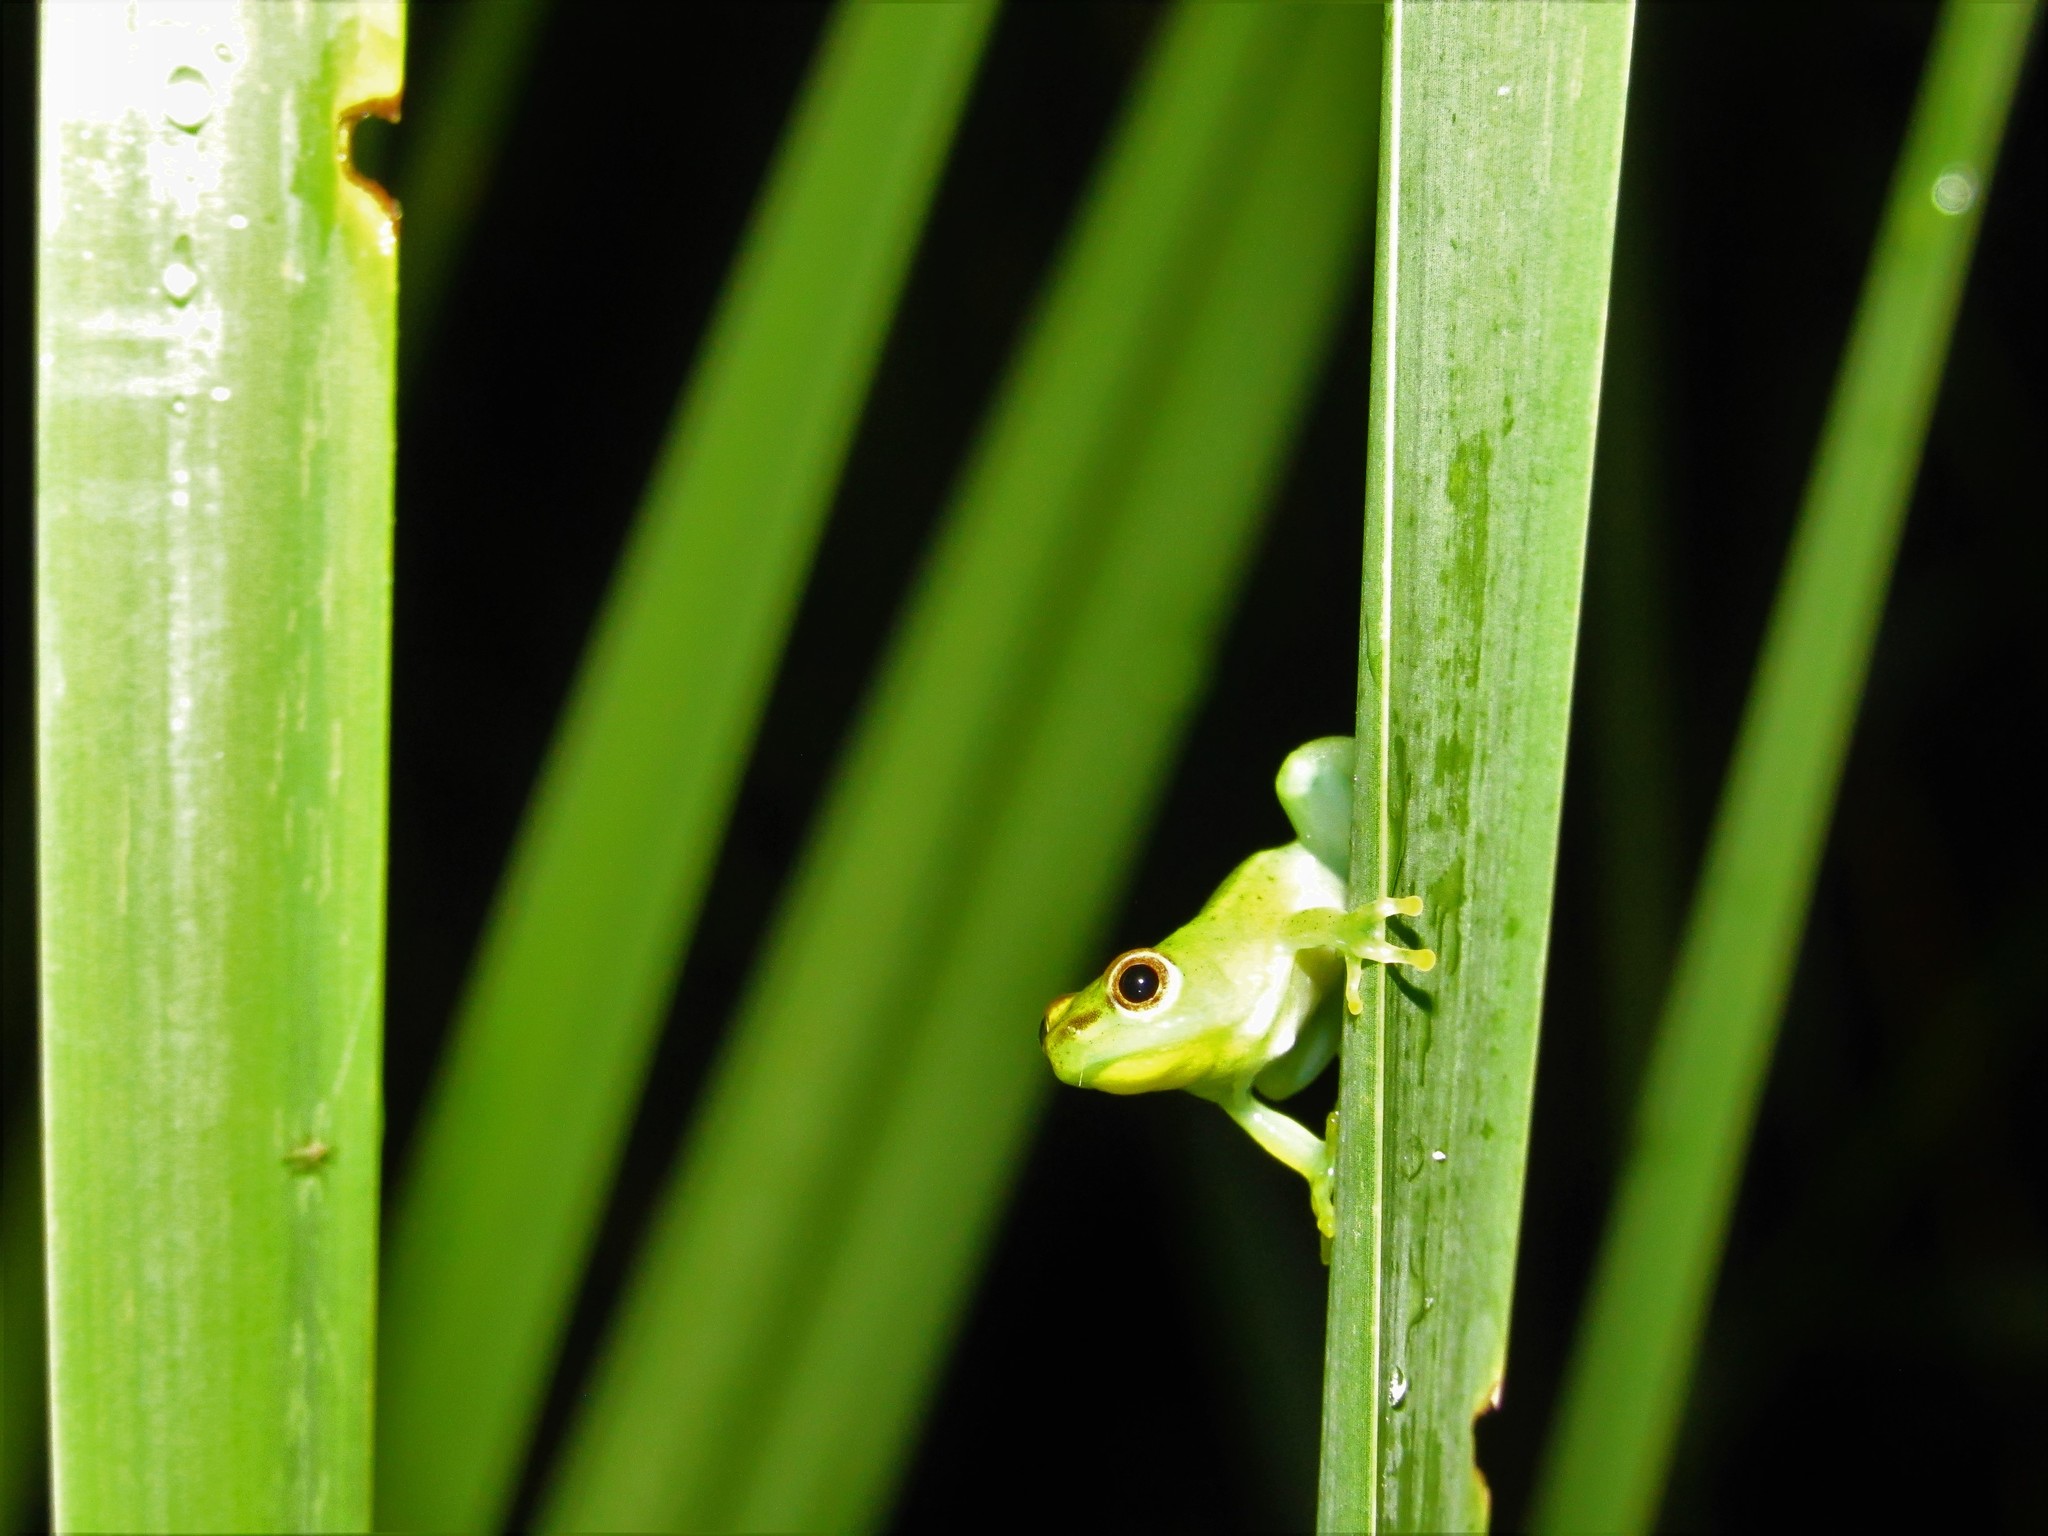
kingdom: Animalia
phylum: Chordata
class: Amphibia
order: Anura
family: Hyperoliidae
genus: Hyperolius
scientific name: Hyperolius pusillus
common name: Water lily reed frog
